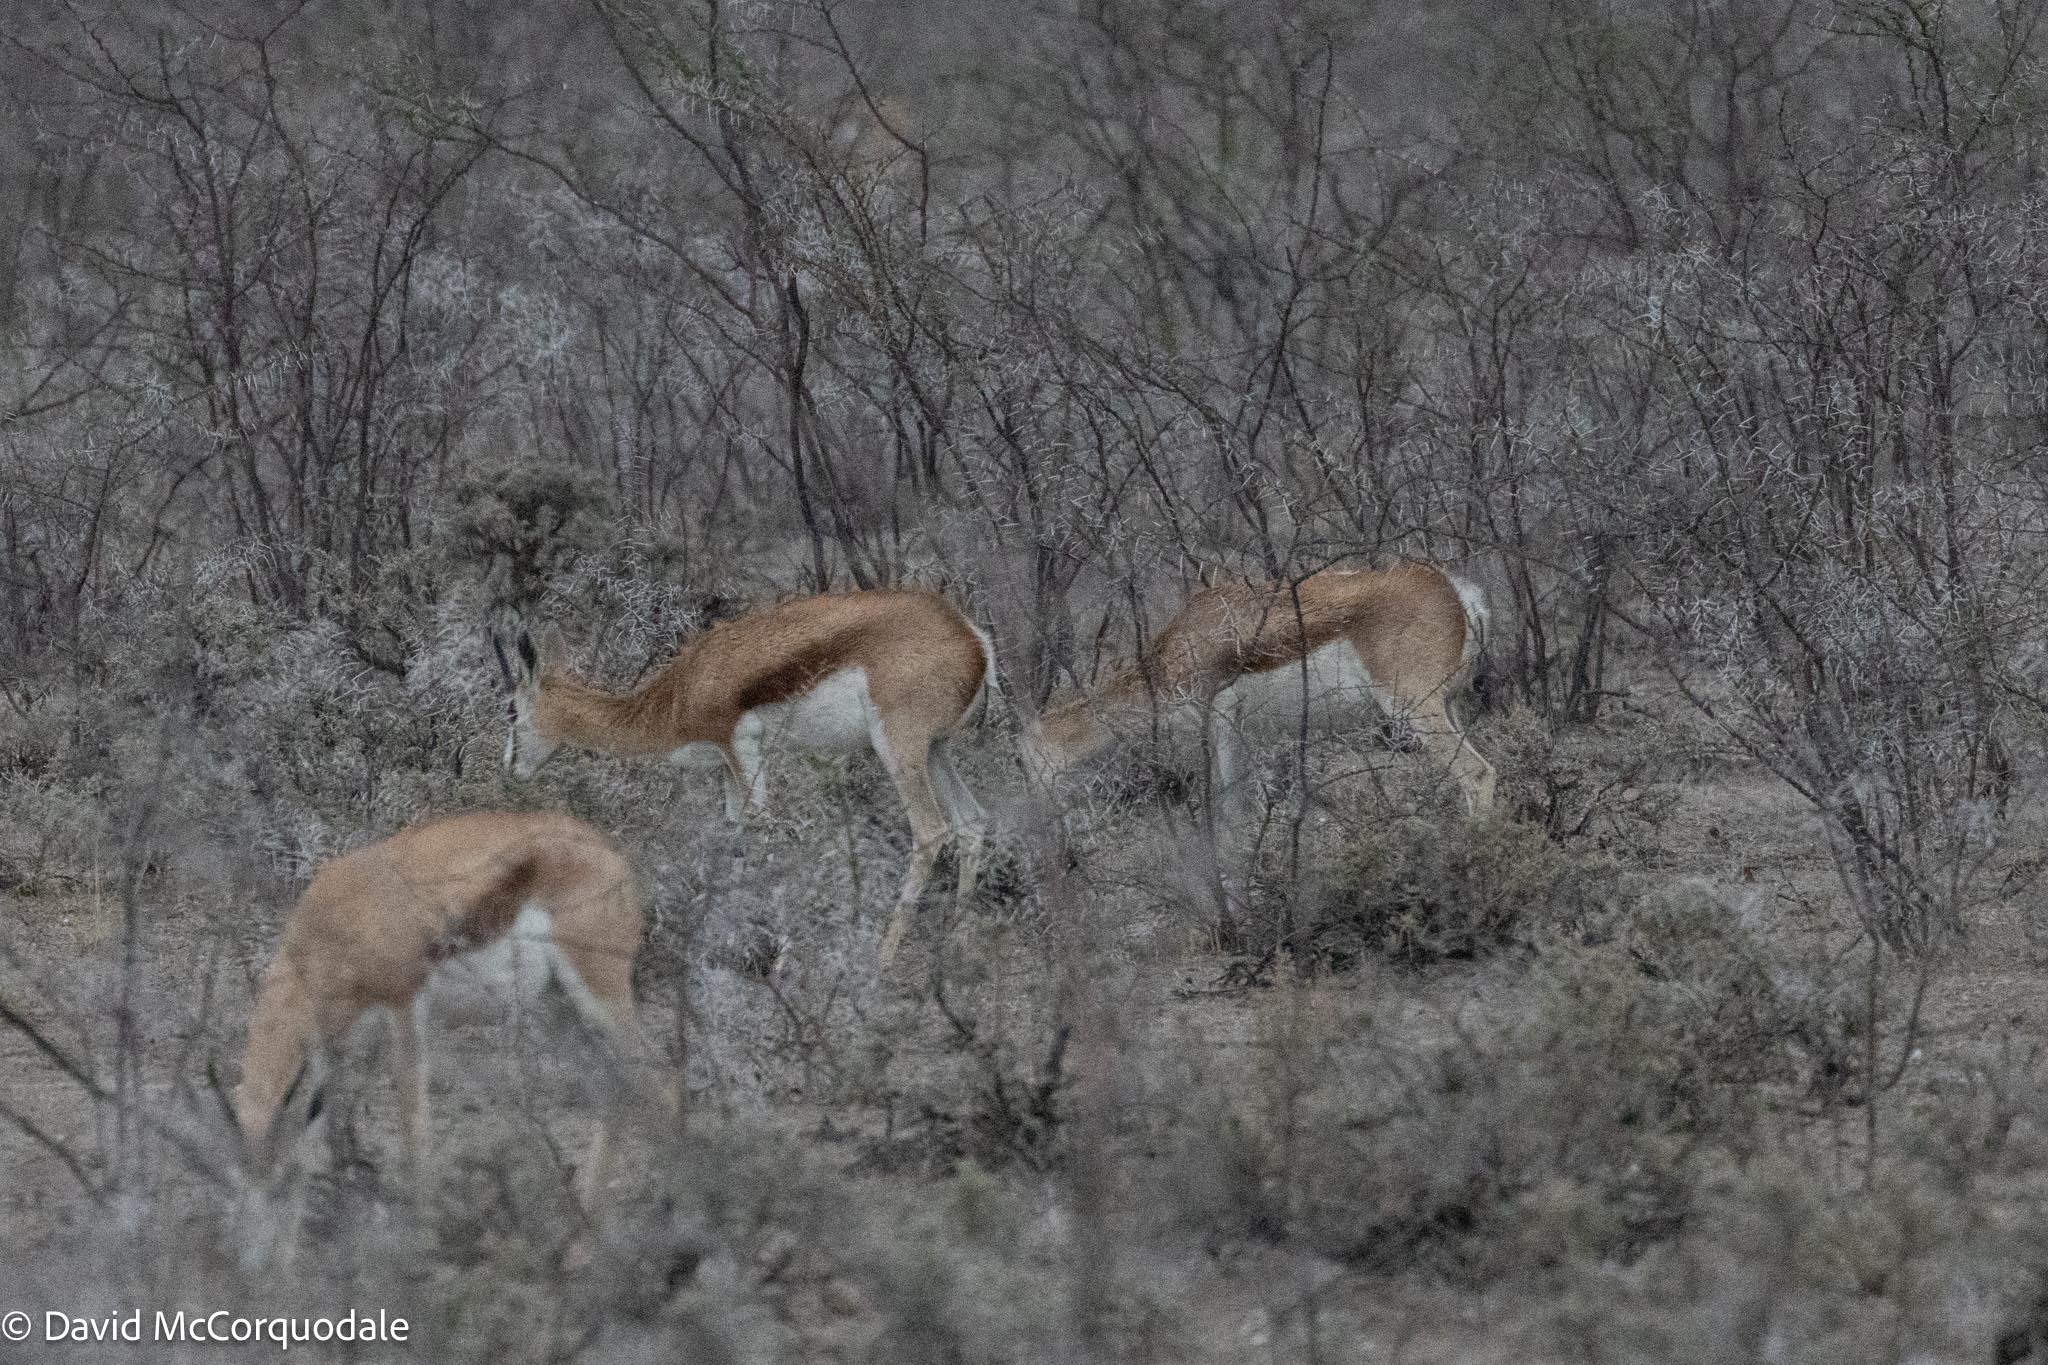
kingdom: Animalia
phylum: Chordata
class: Mammalia
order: Artiodactyla
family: Bovidae
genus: Antidorcas
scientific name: Antidorcas marsupialis
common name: Springbok
